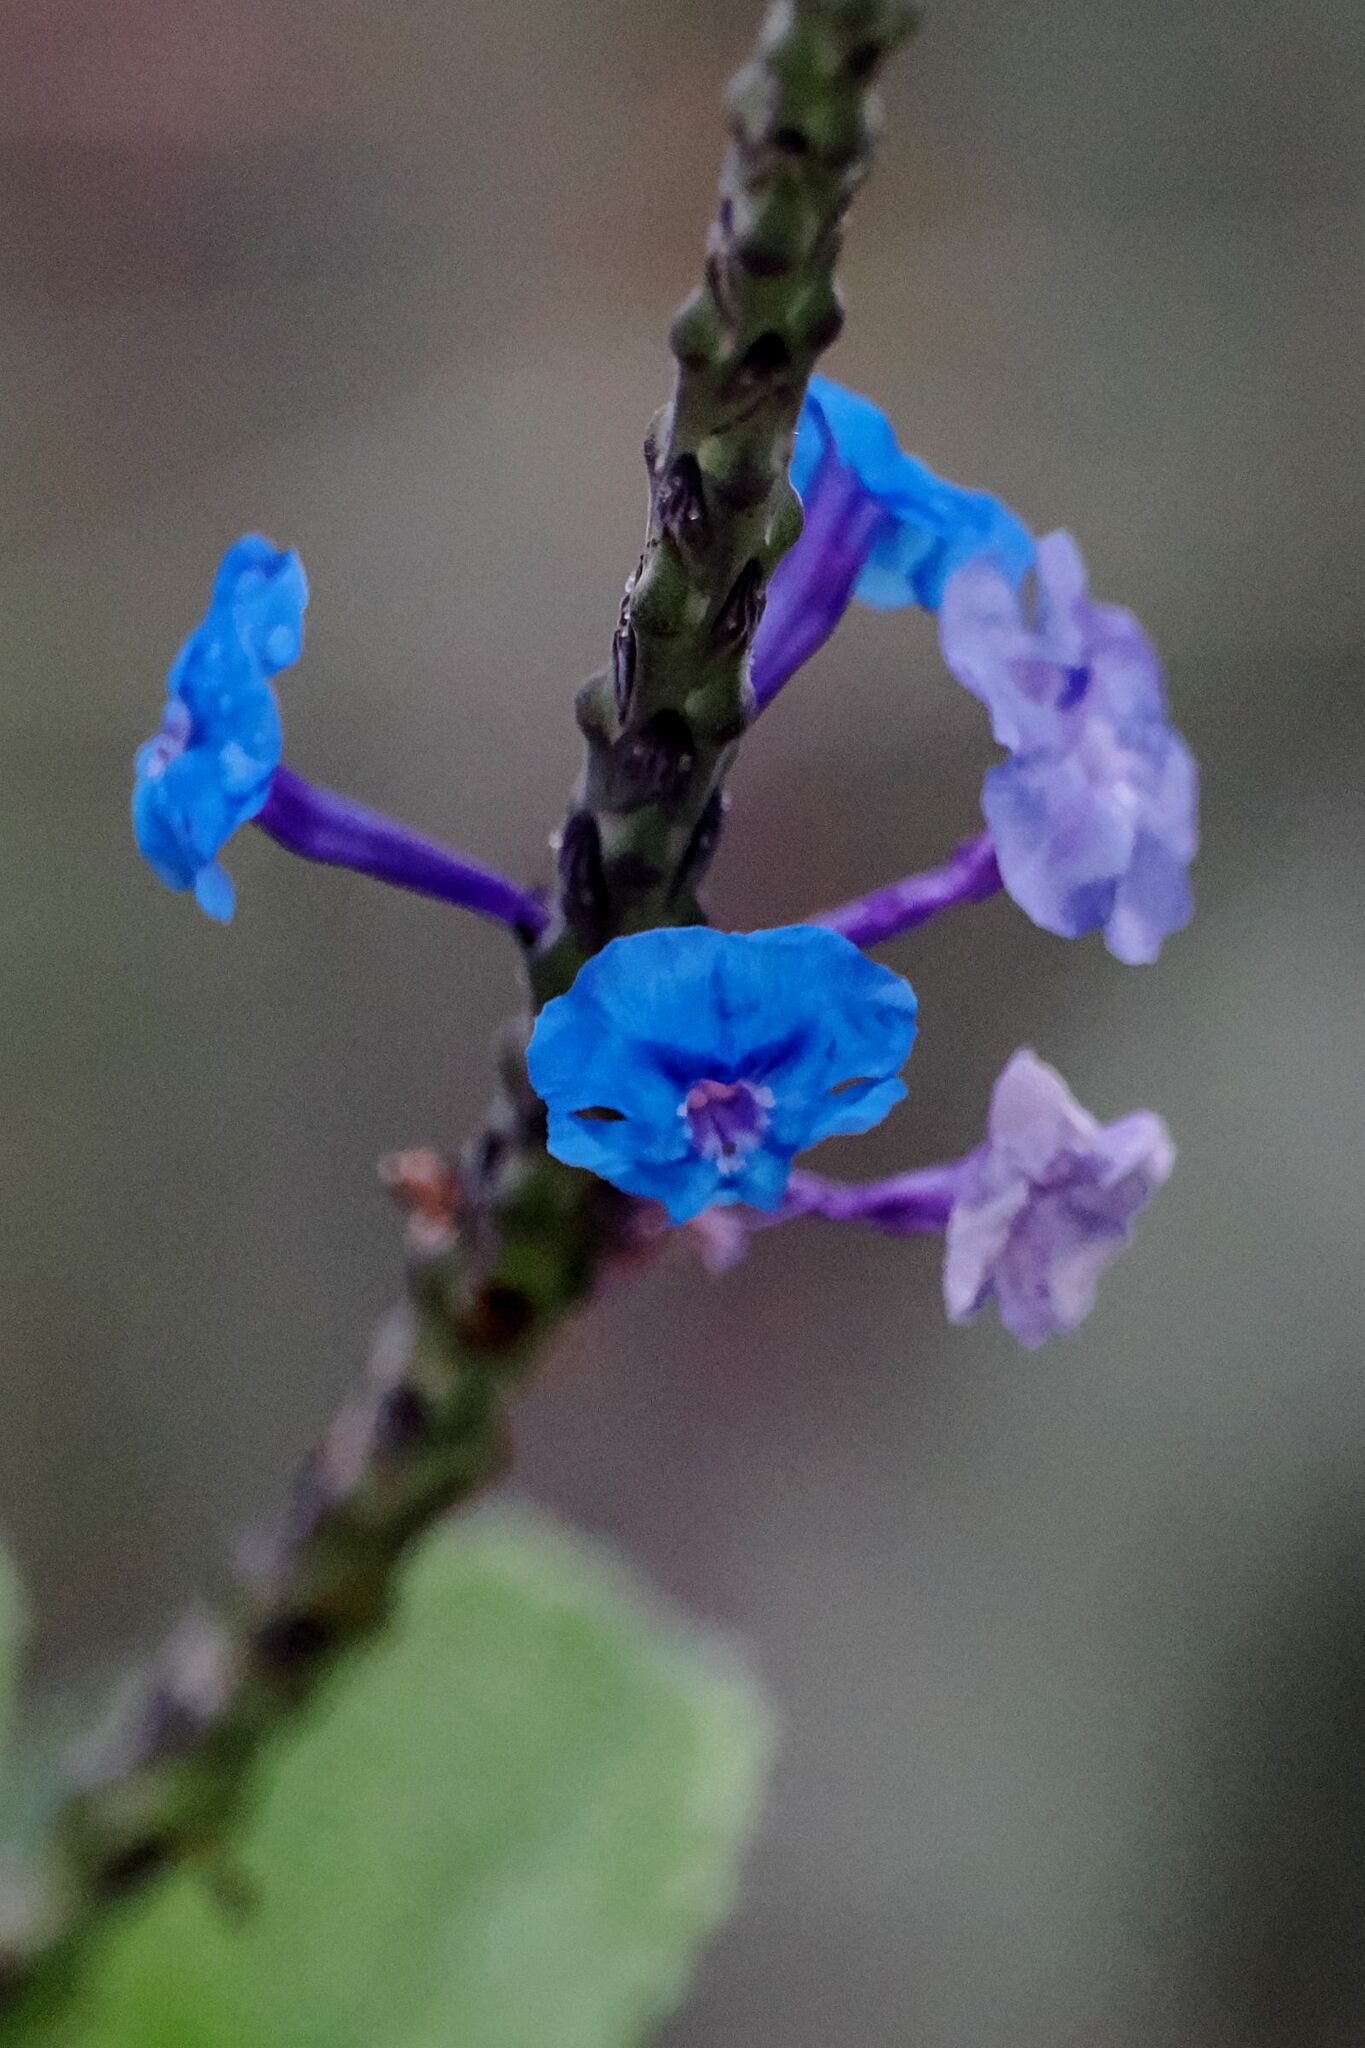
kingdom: Plantae
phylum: Tracheophyta
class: Magnoliopsida
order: Lamiales
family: Verbenaceae
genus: Stachytarpheta
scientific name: Stachytarpheta crassifolia
